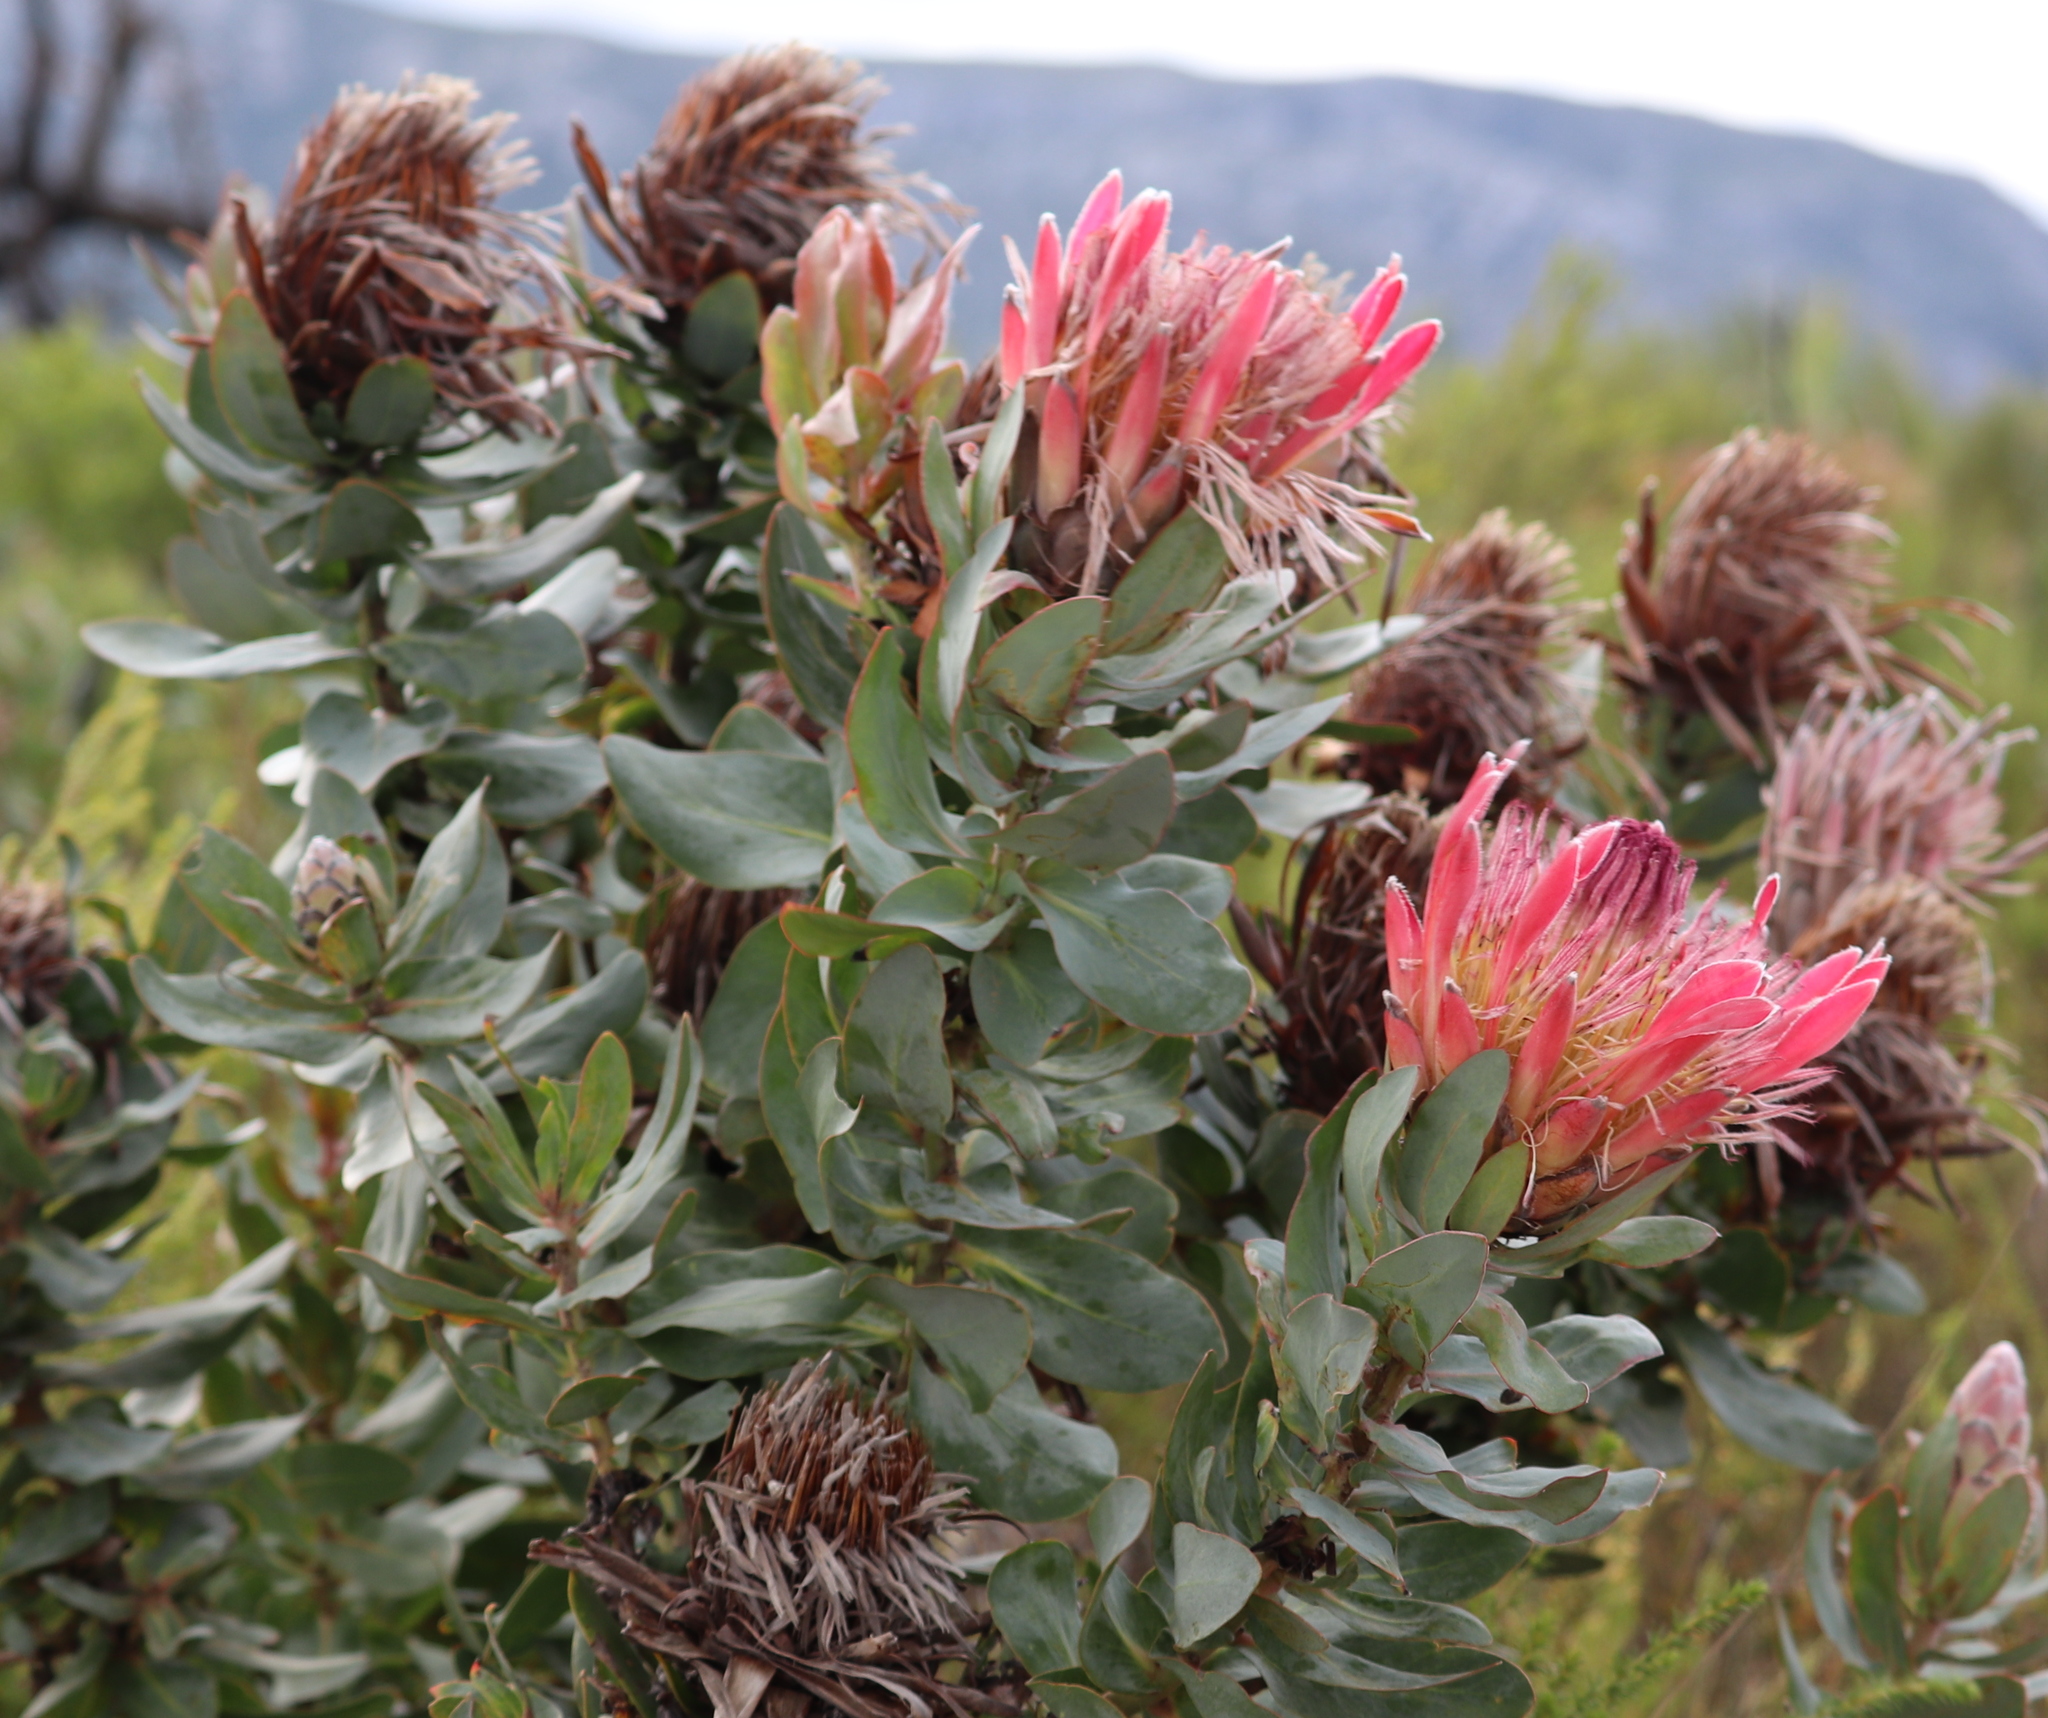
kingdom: Plantae
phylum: Tracheophyta
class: Magnoliopsida
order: Proteales
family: Proteaceae
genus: Protea
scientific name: Protea eximia
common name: Broad-leaved sugarbush
